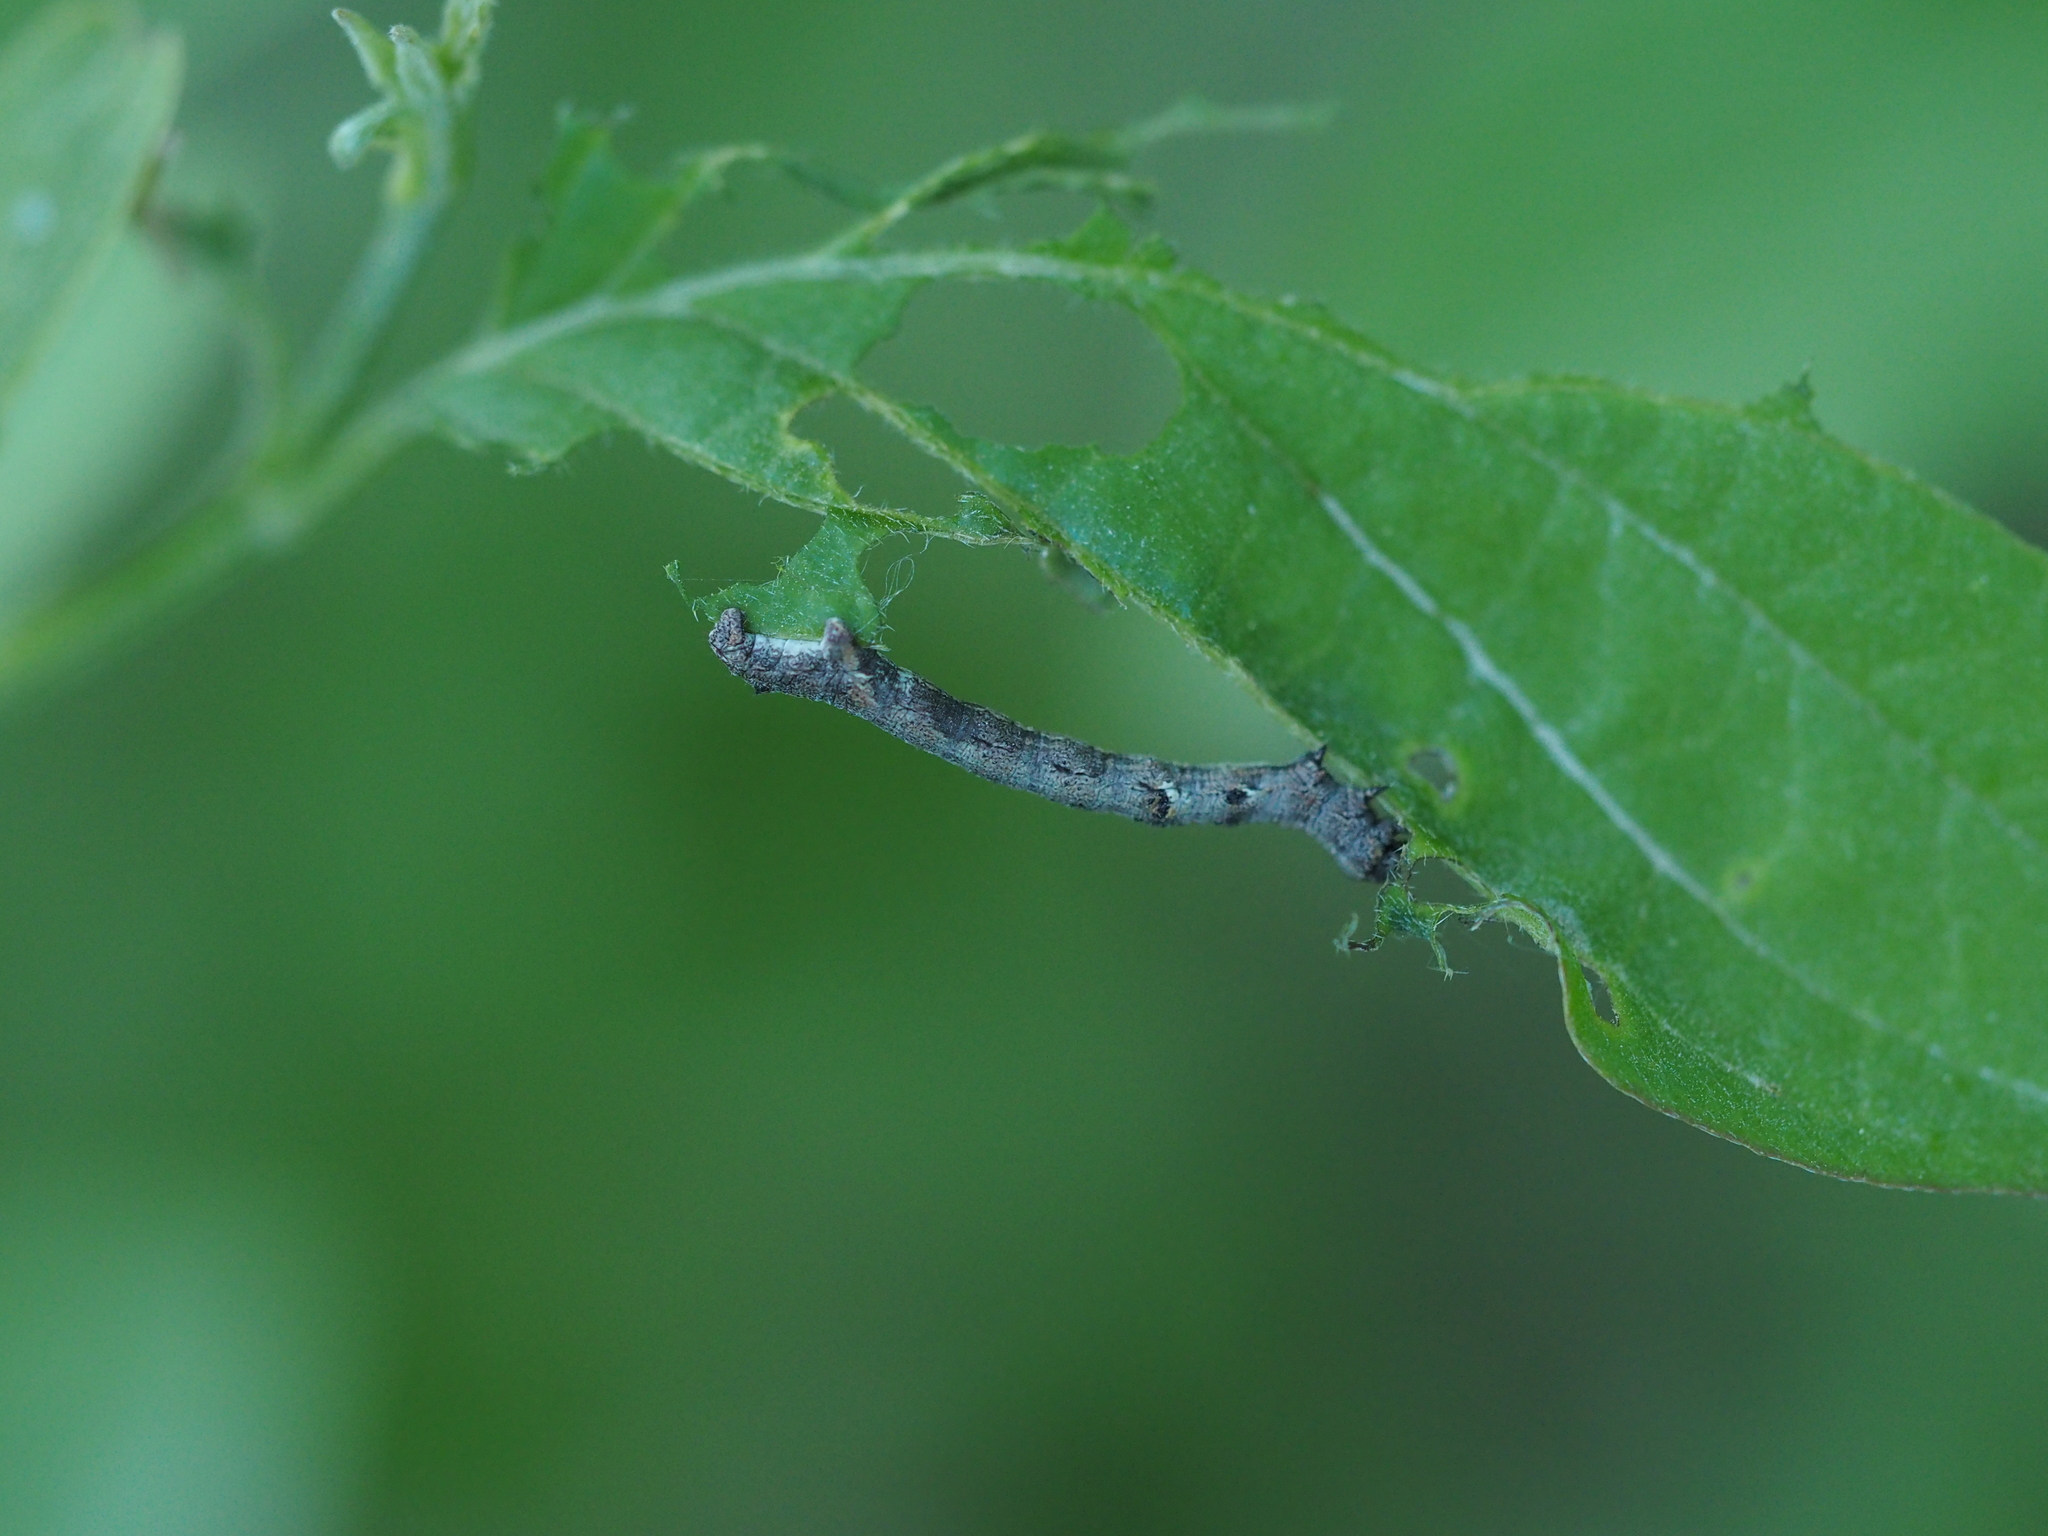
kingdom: Animalia
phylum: Arthropoda
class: Insecta
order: Lepidoptera
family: Geometridae
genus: Agriopis
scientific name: Agriopis bajaria
